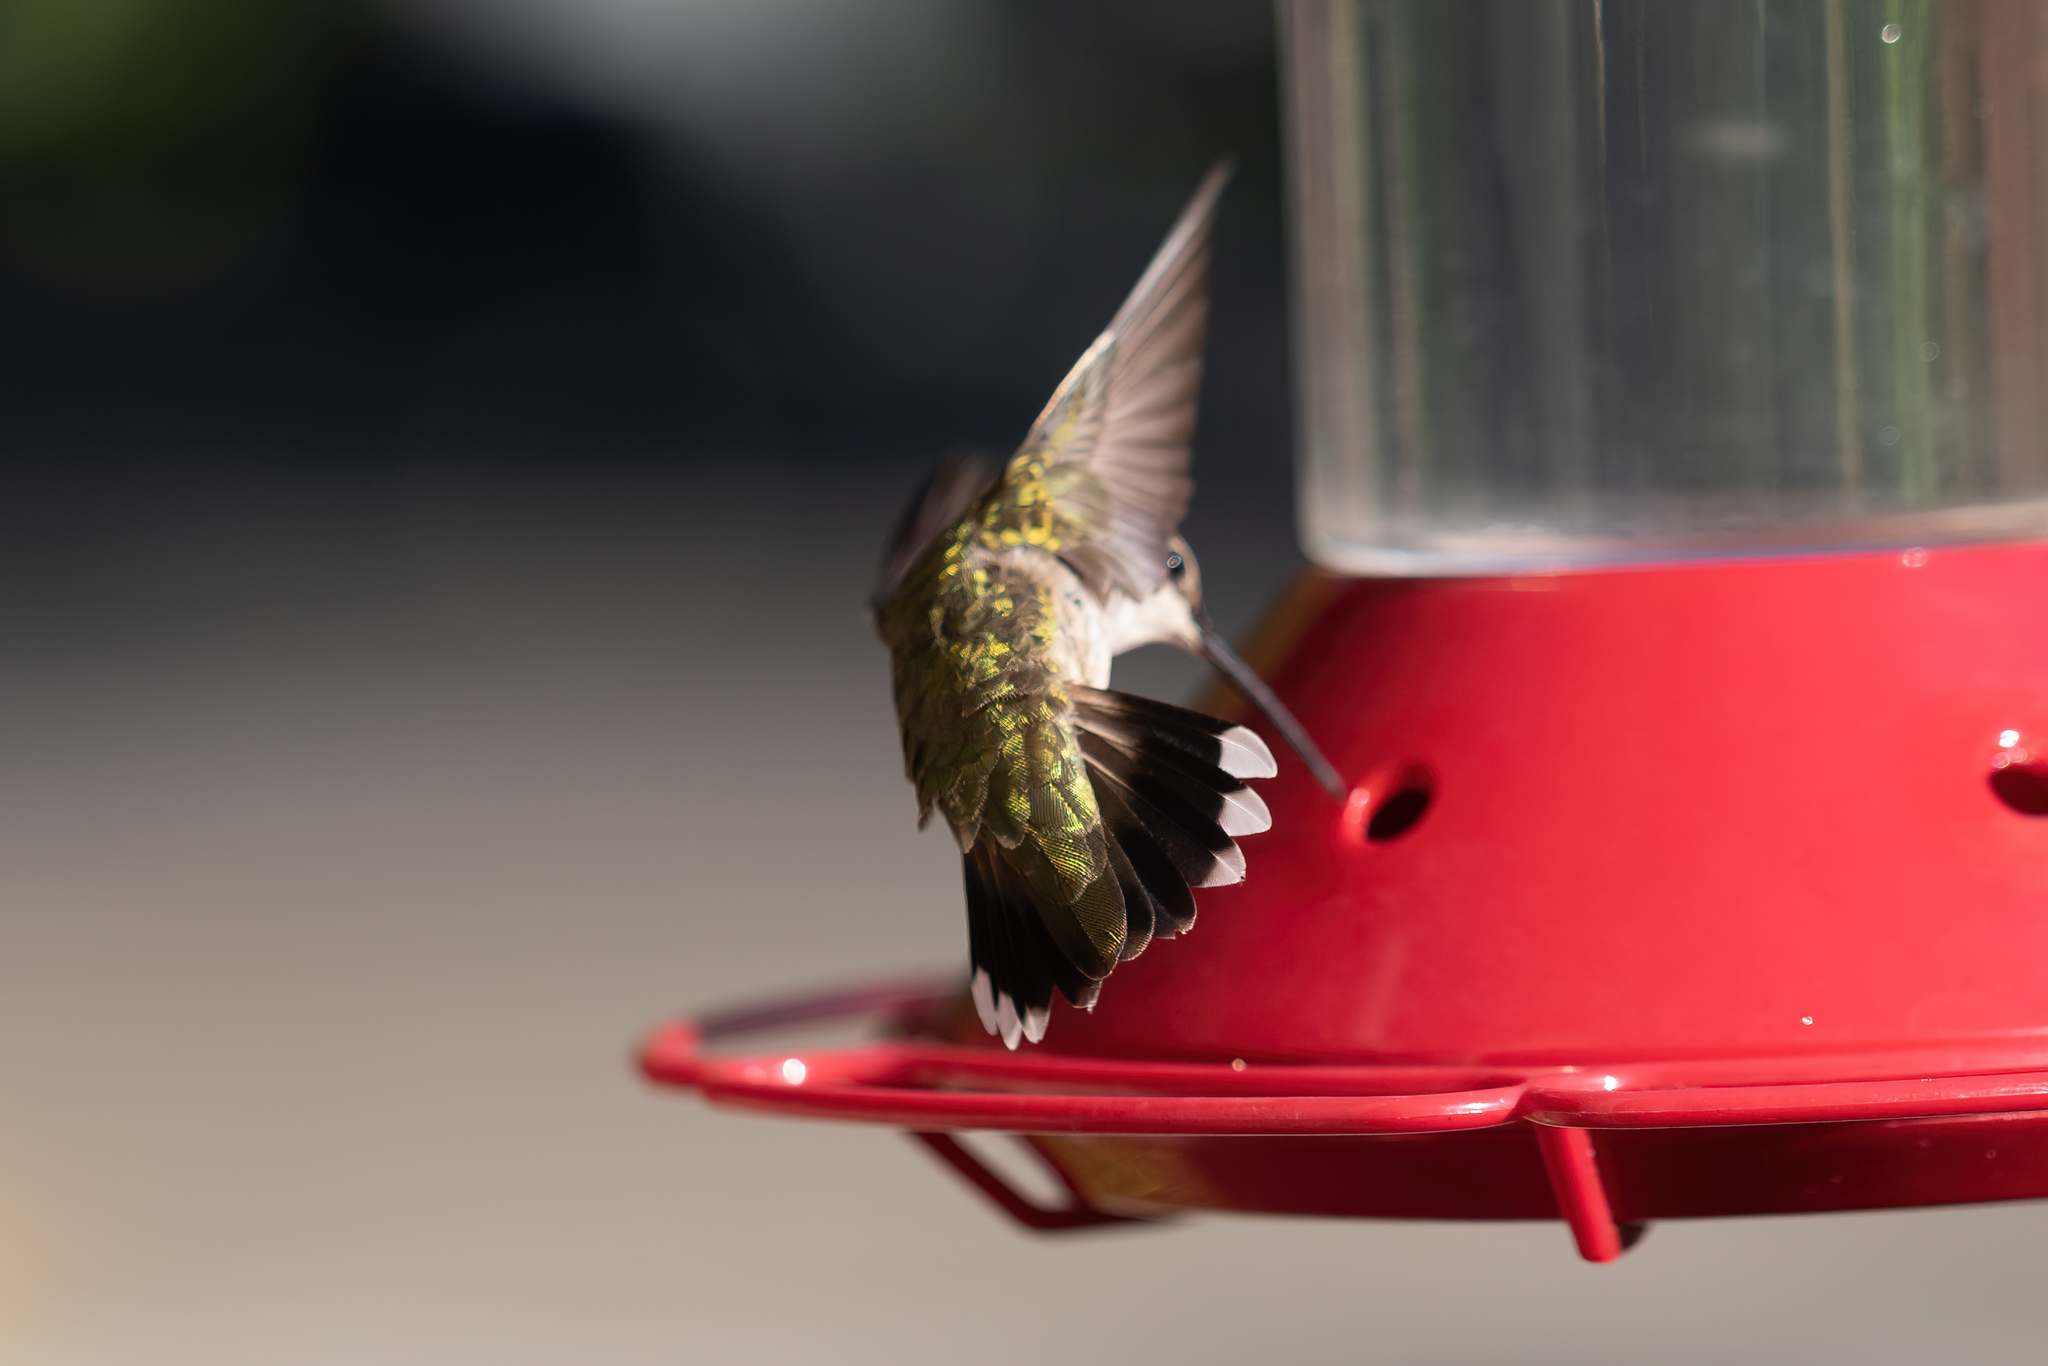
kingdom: Animalia
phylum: Chordata
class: Aves
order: Apodiformes
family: Trochilidae
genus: Archilochus
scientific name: Archilochus alexandri
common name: Black-chinned hummingbird
